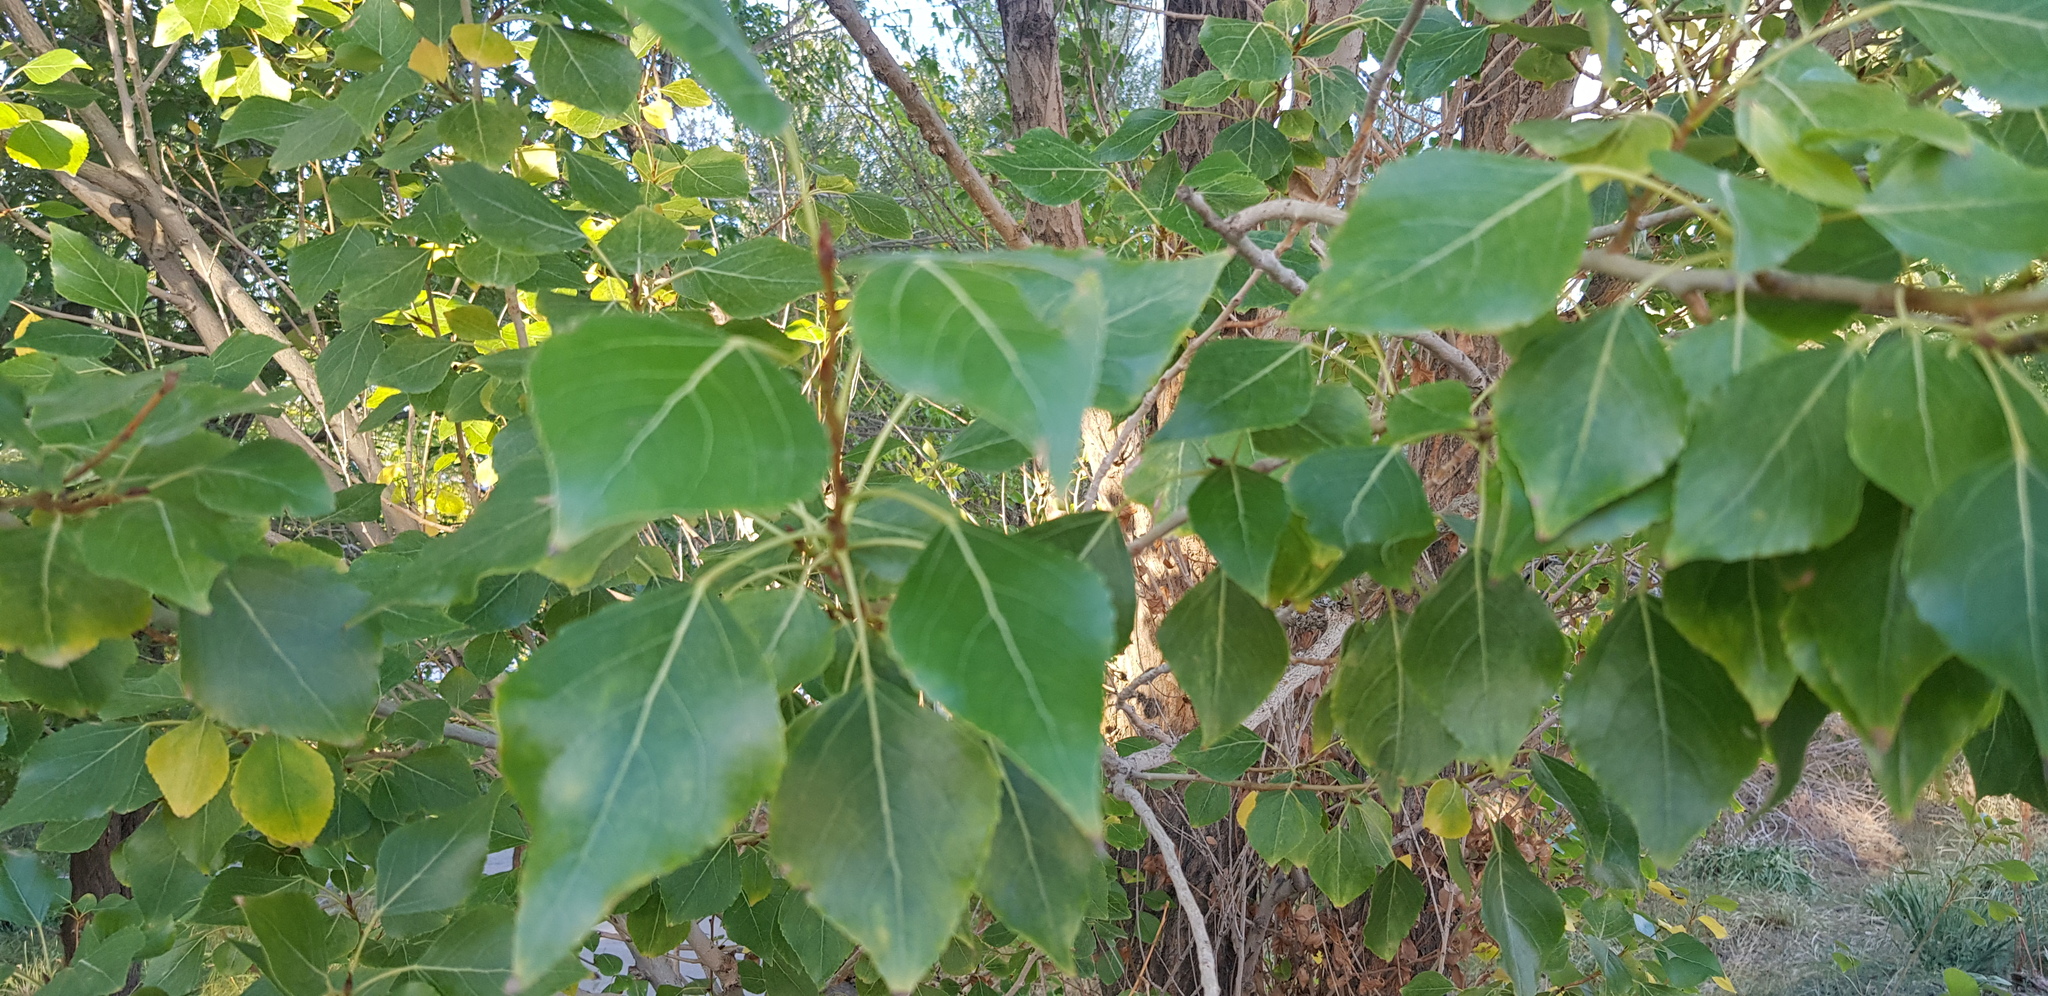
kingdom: Plantae
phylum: Tracheophyta
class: Magnoliopsida
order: Malpighiales
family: Salicaceae
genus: Populus
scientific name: Populus suaveolens
